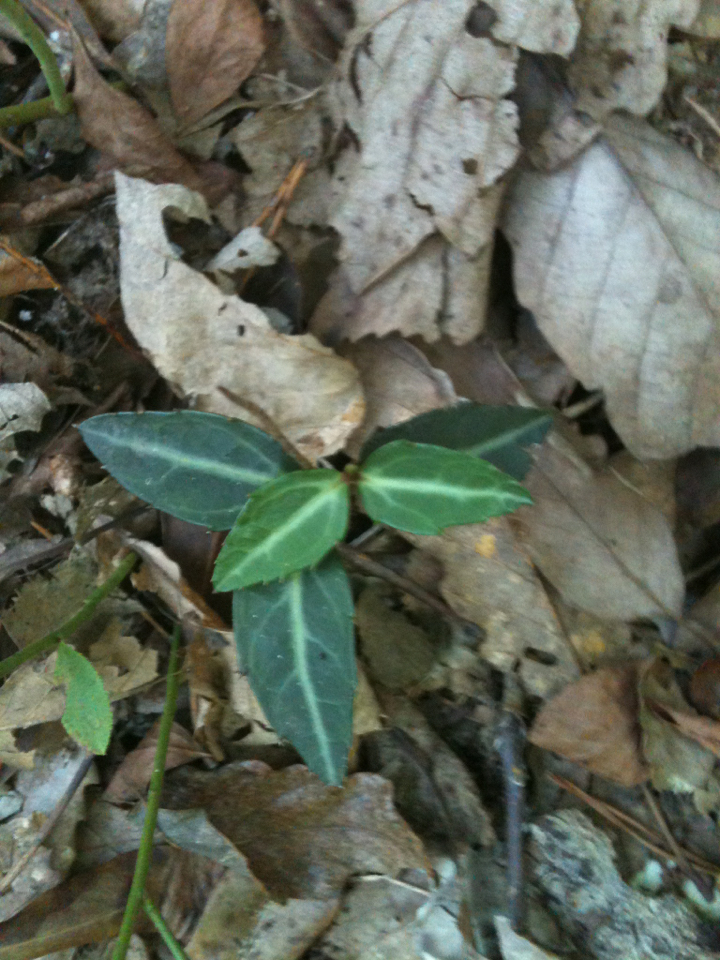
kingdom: Plantae
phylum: Tracheophyta
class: Magnoliopsida
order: Ericales
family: Ericaceae
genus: Chimaphila
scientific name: Chimaphila maculata
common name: Spotted pipsissewa
